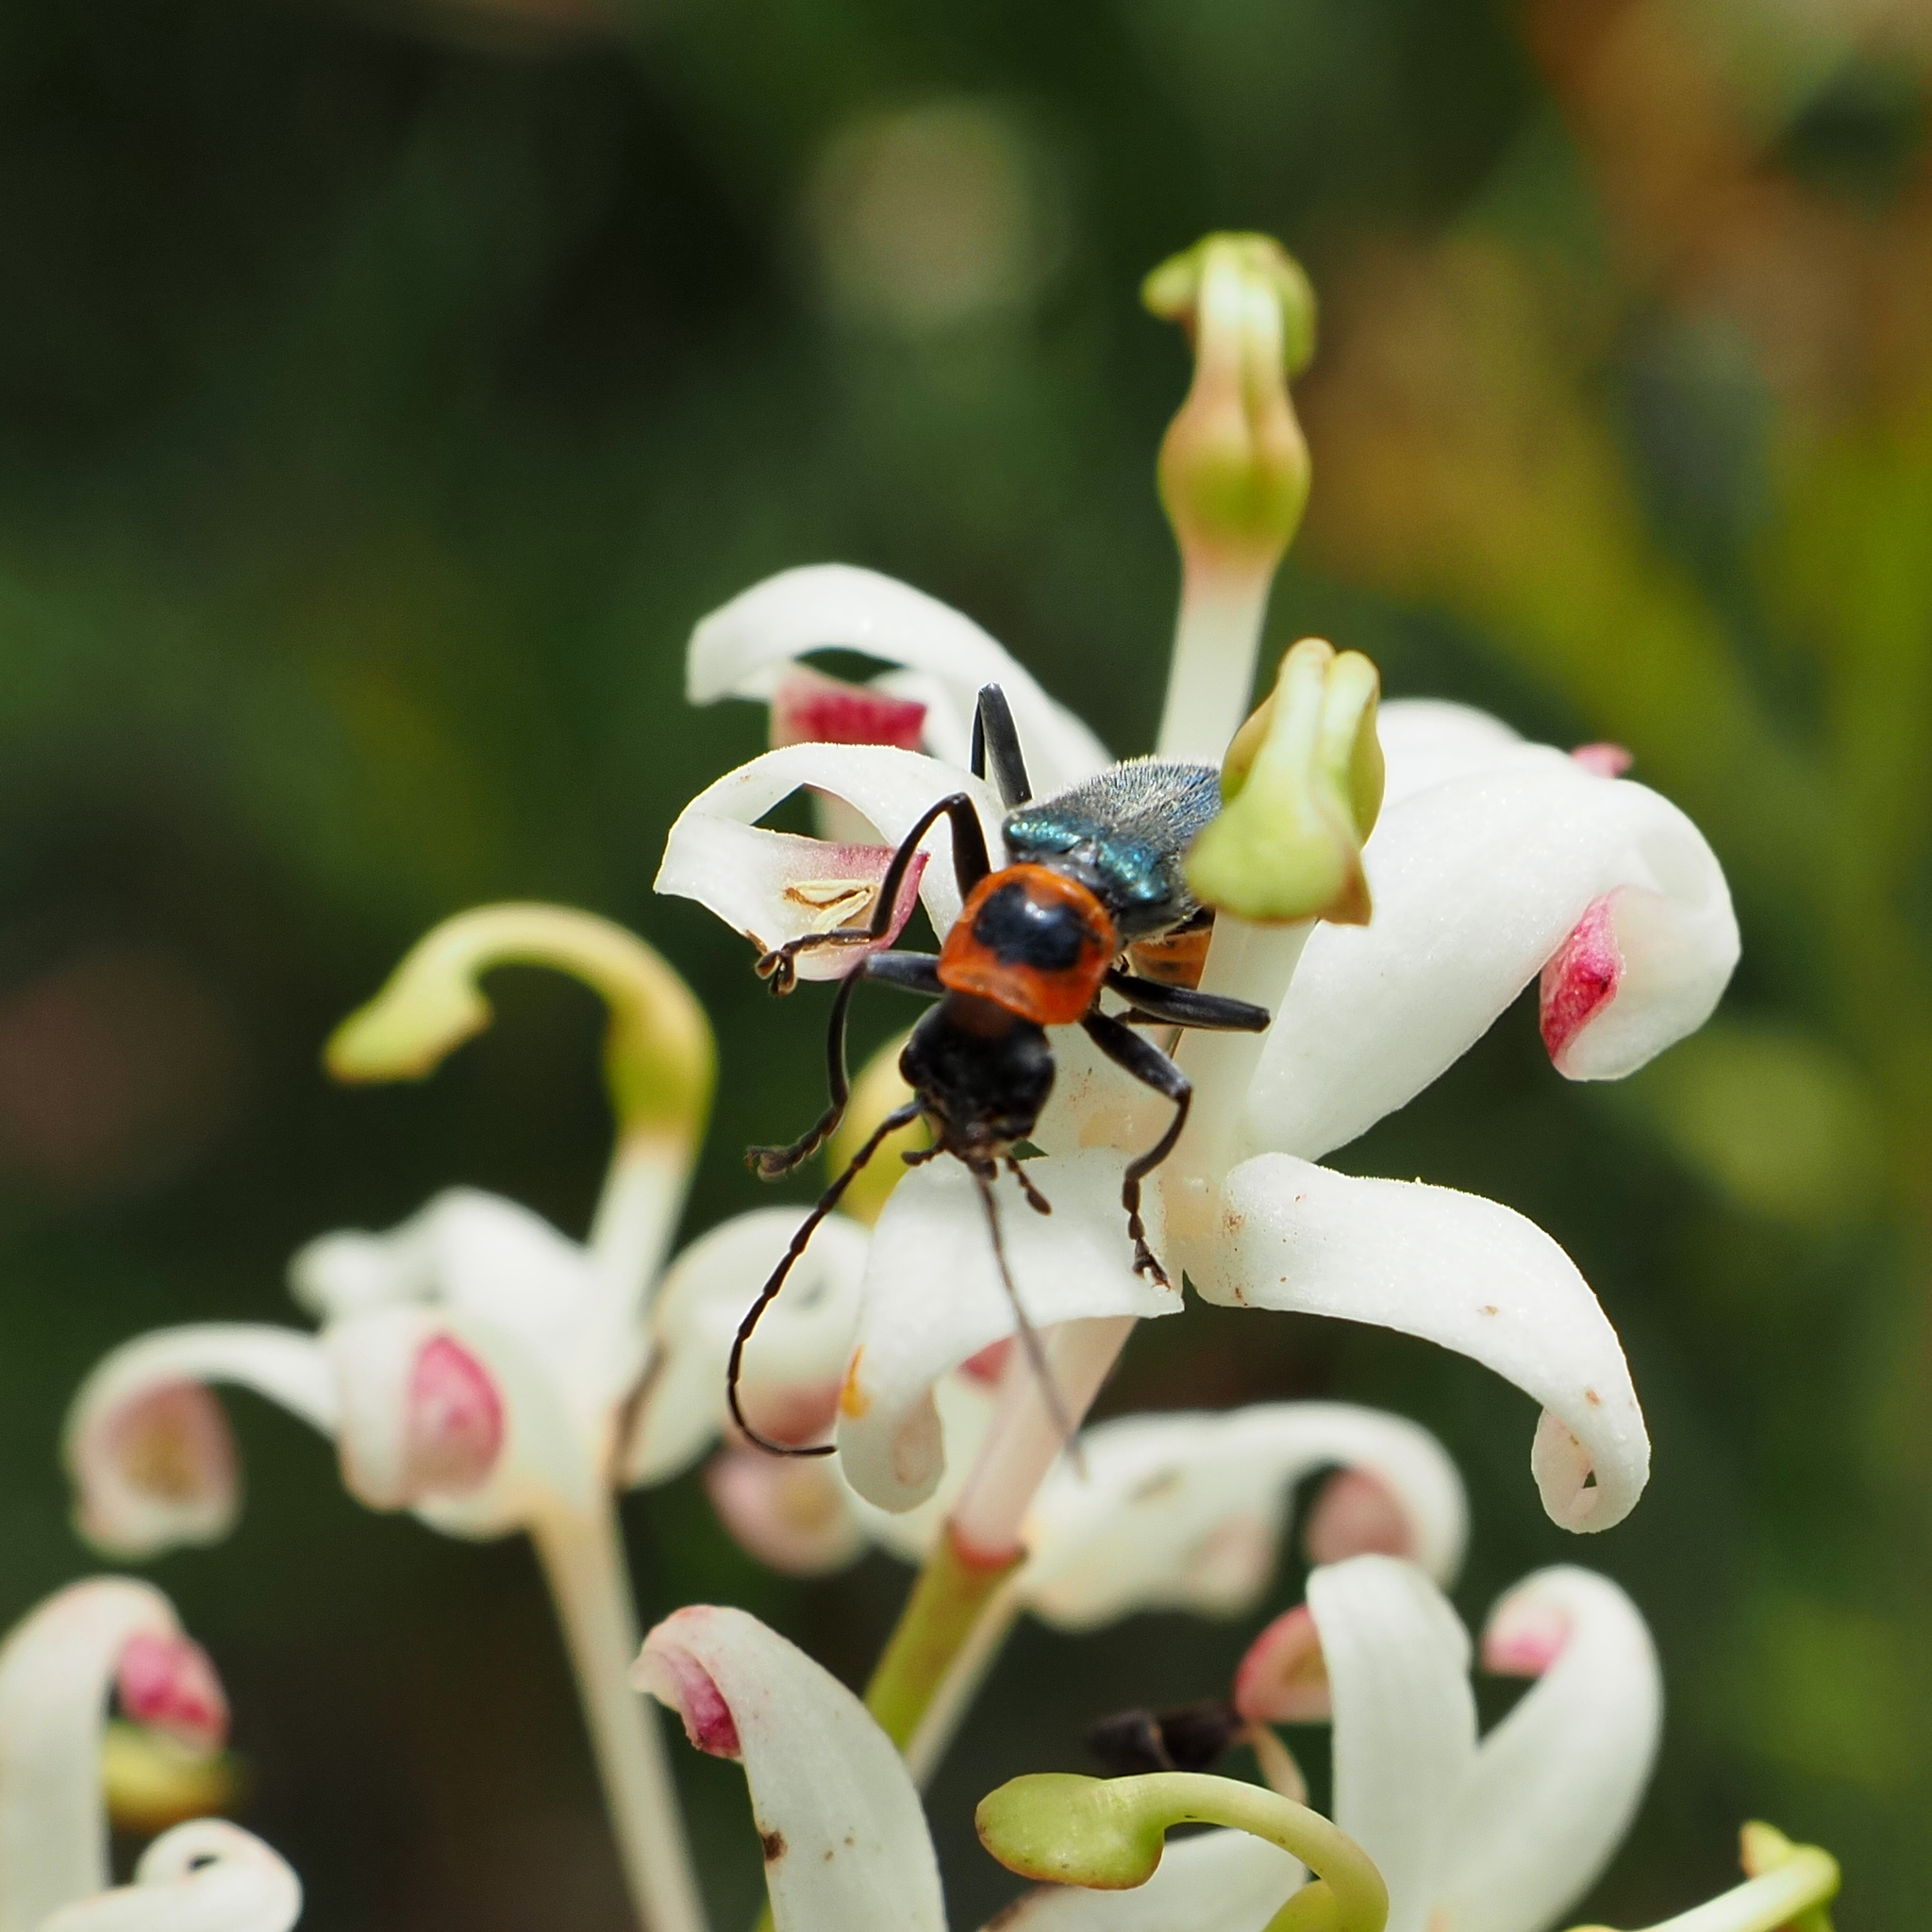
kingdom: Animalia
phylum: Arthropoda
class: Insecta
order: Coleoptera
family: Cantharidae
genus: Chauliognathus
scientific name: Chauliognathus
